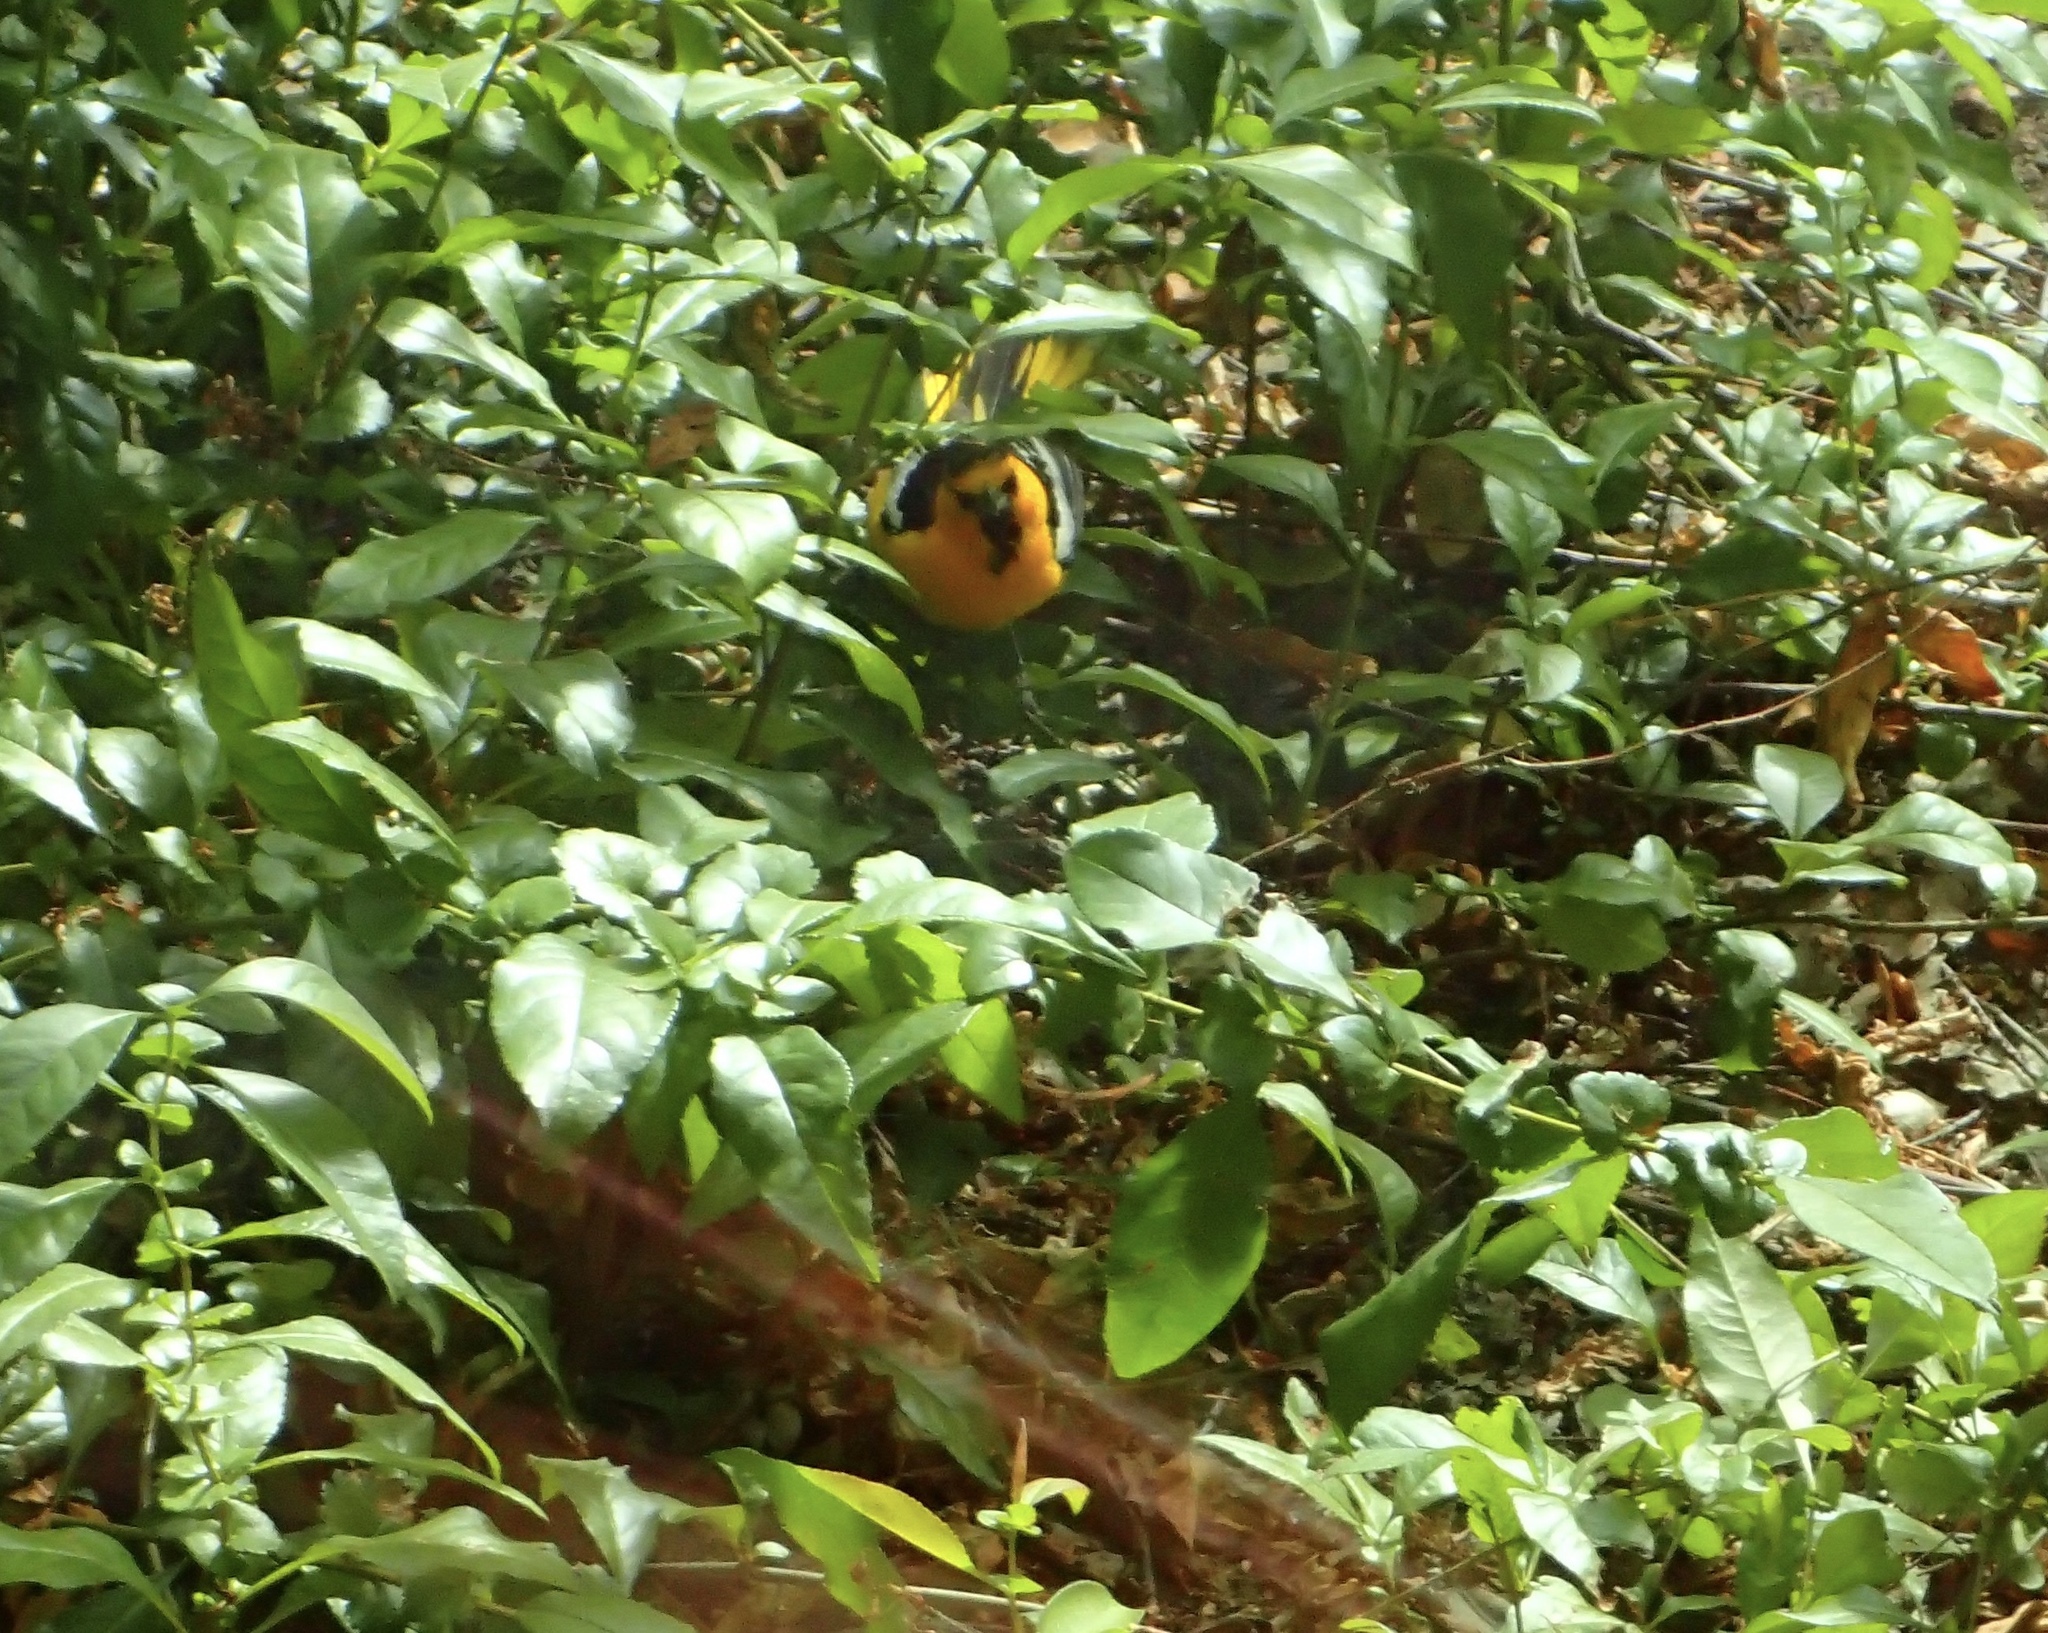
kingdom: Animalia
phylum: Chordata
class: Aves
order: Passeriformes
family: Icteridae
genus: Icterus
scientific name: Icterus bullockii
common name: Bullock's oriole
